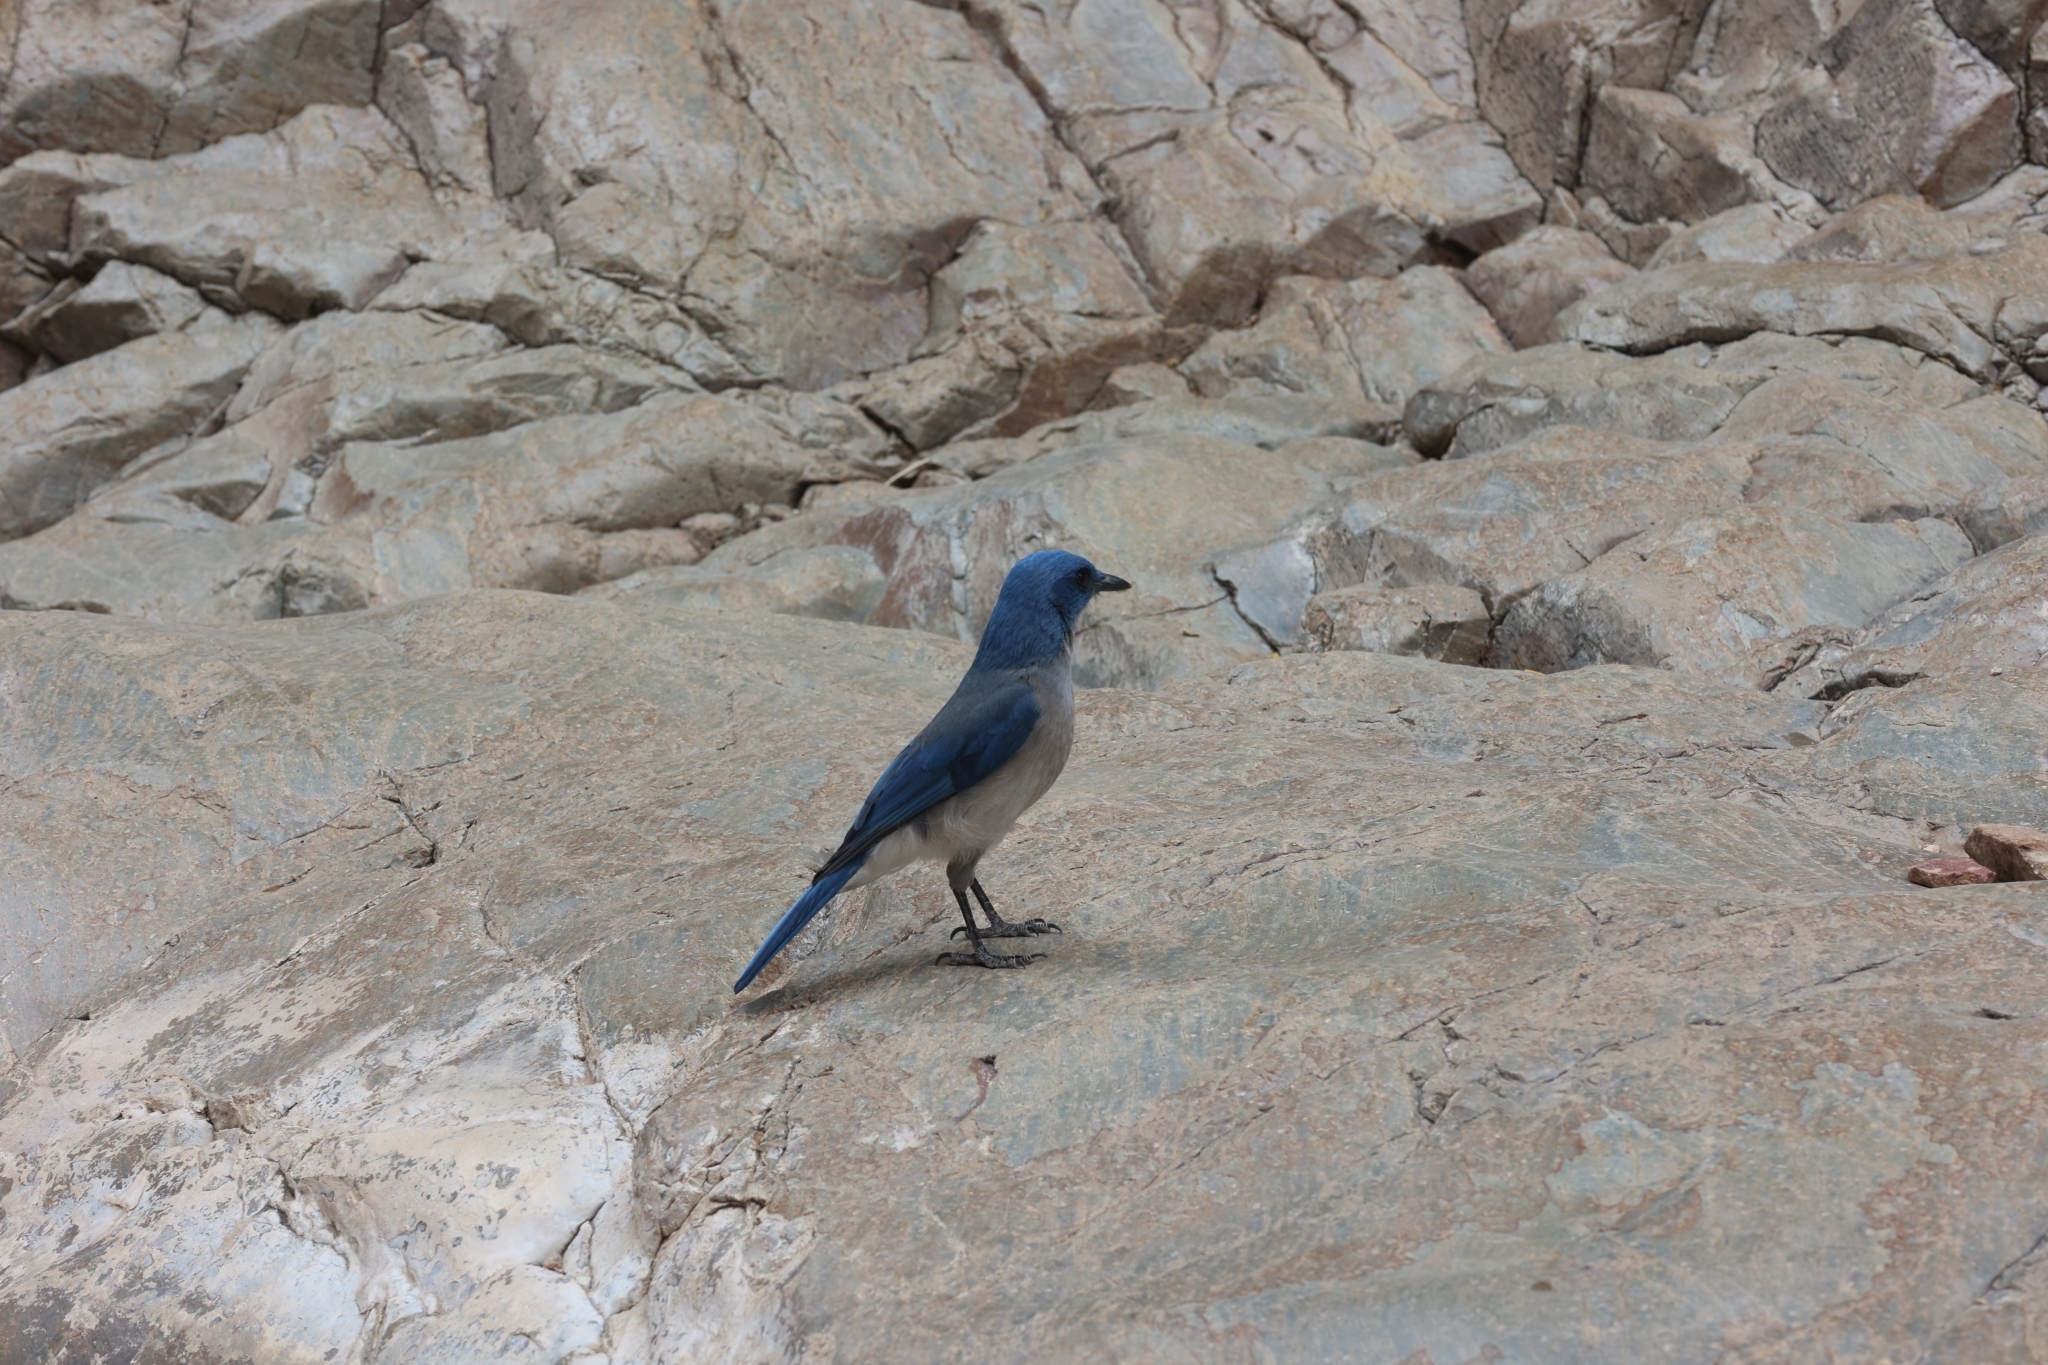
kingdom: Animalia
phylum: Chordata
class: Aves
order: Passeriformes
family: Corvidae
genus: Aphelocoma
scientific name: Aphelocoma wollweberi
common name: Mexican jay
